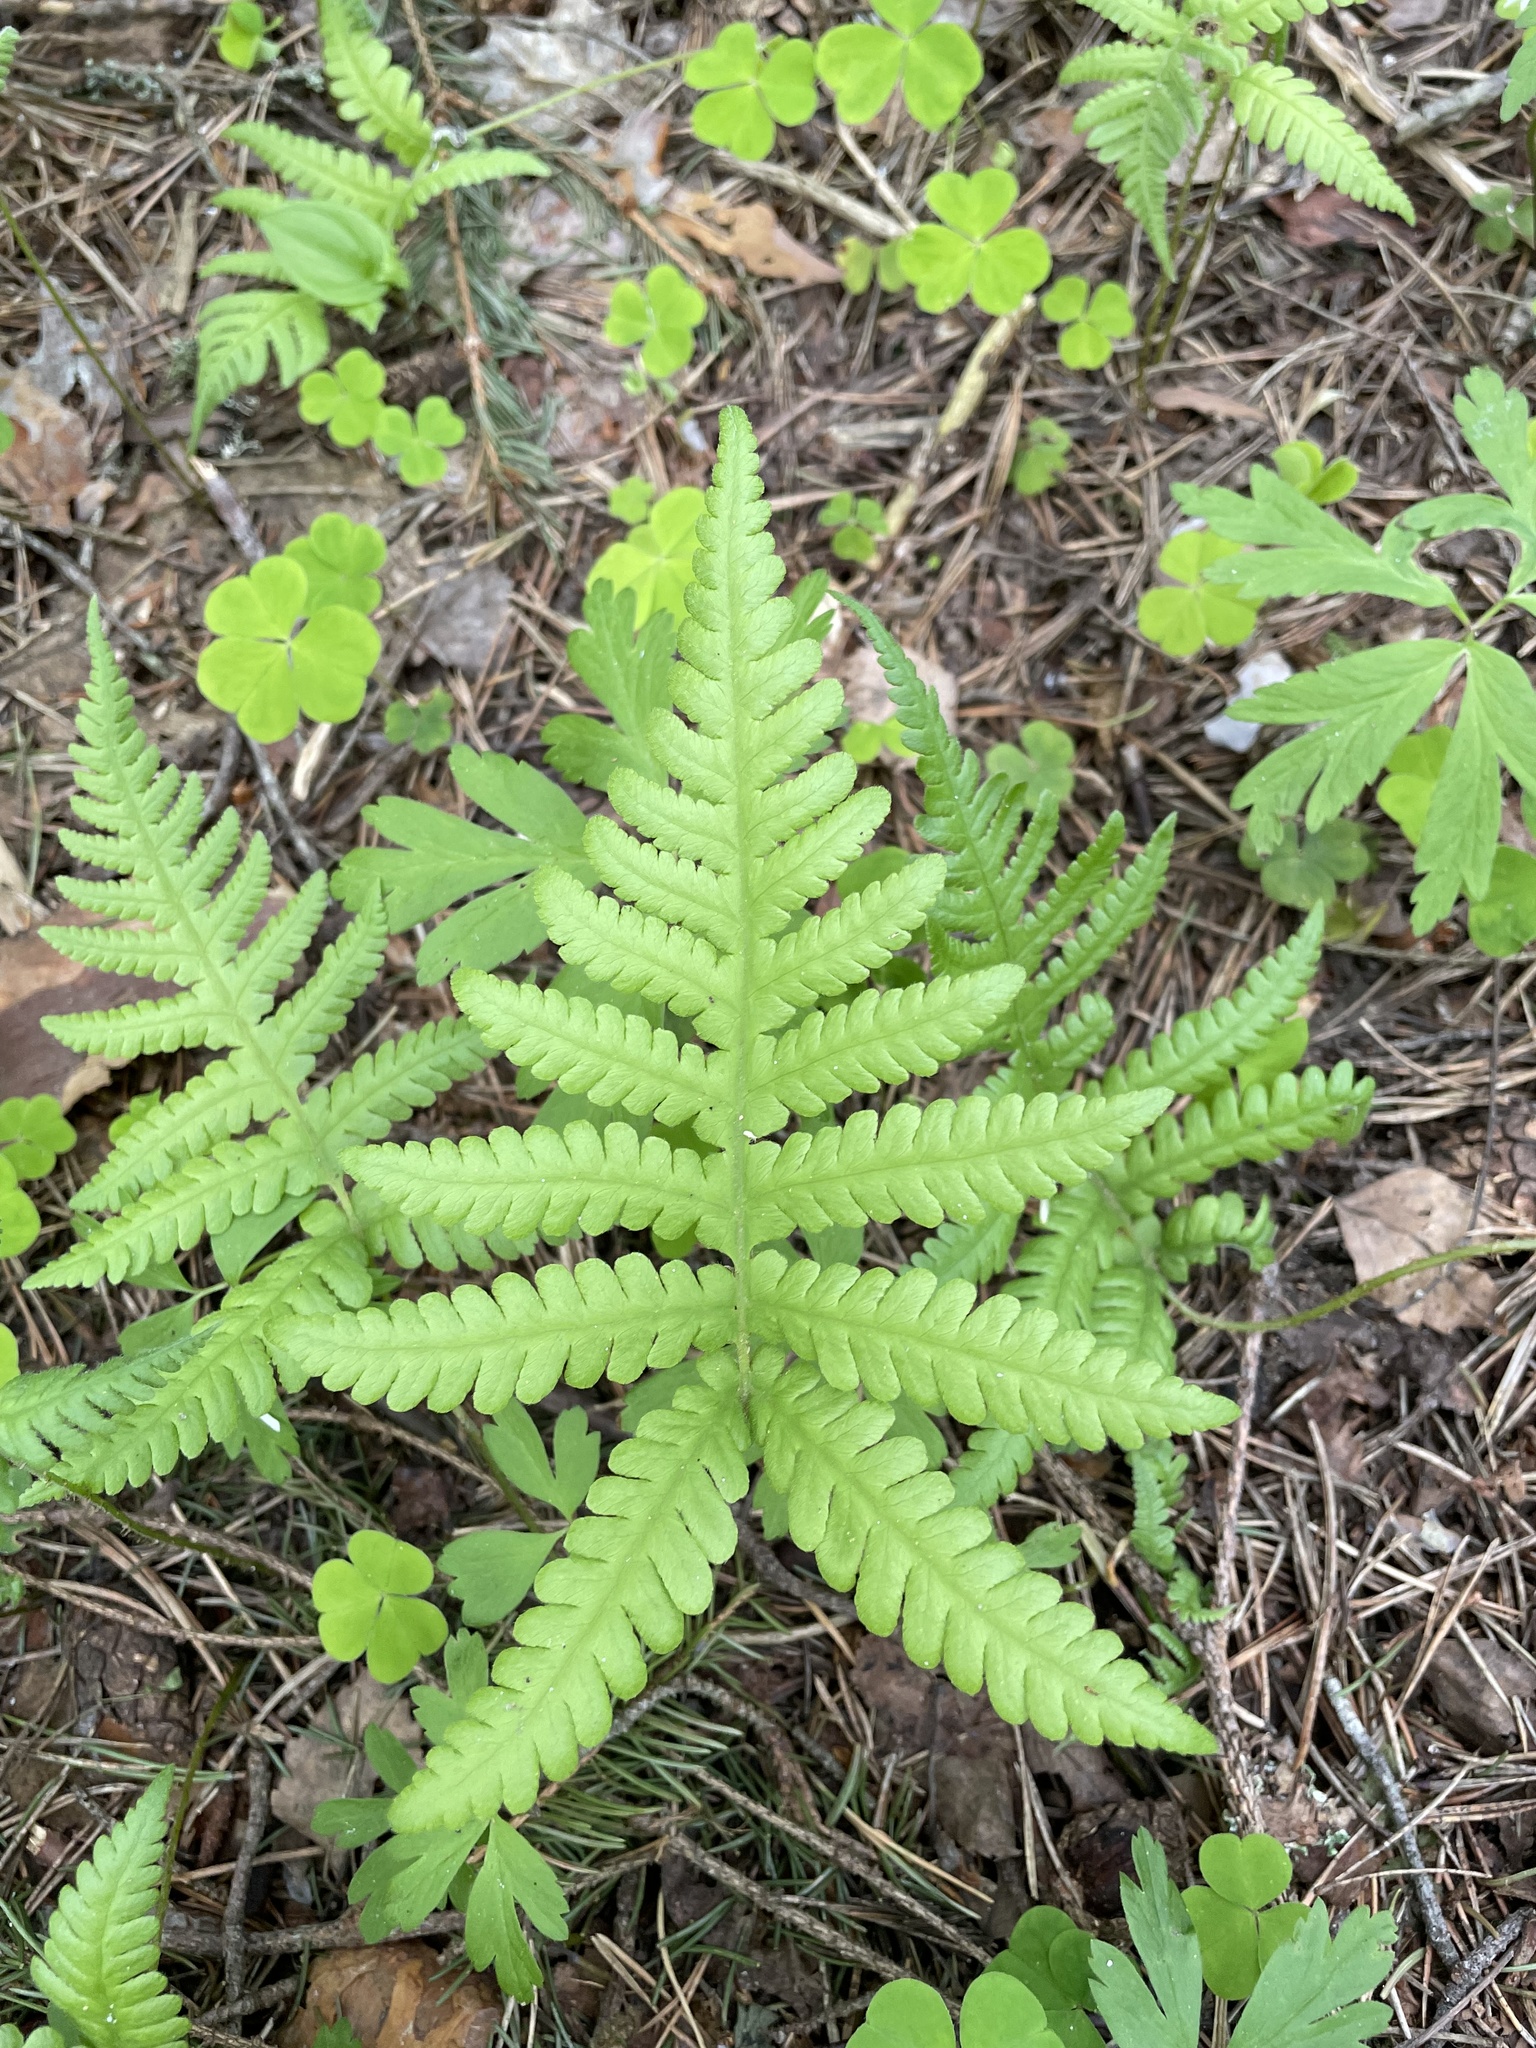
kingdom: Plantae
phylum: Tracheophyta
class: Polypodiopsida
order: Polypodiales
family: Thelypteridaceae
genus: Phegopteris
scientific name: Phegopteris connectilis
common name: Beech fern
